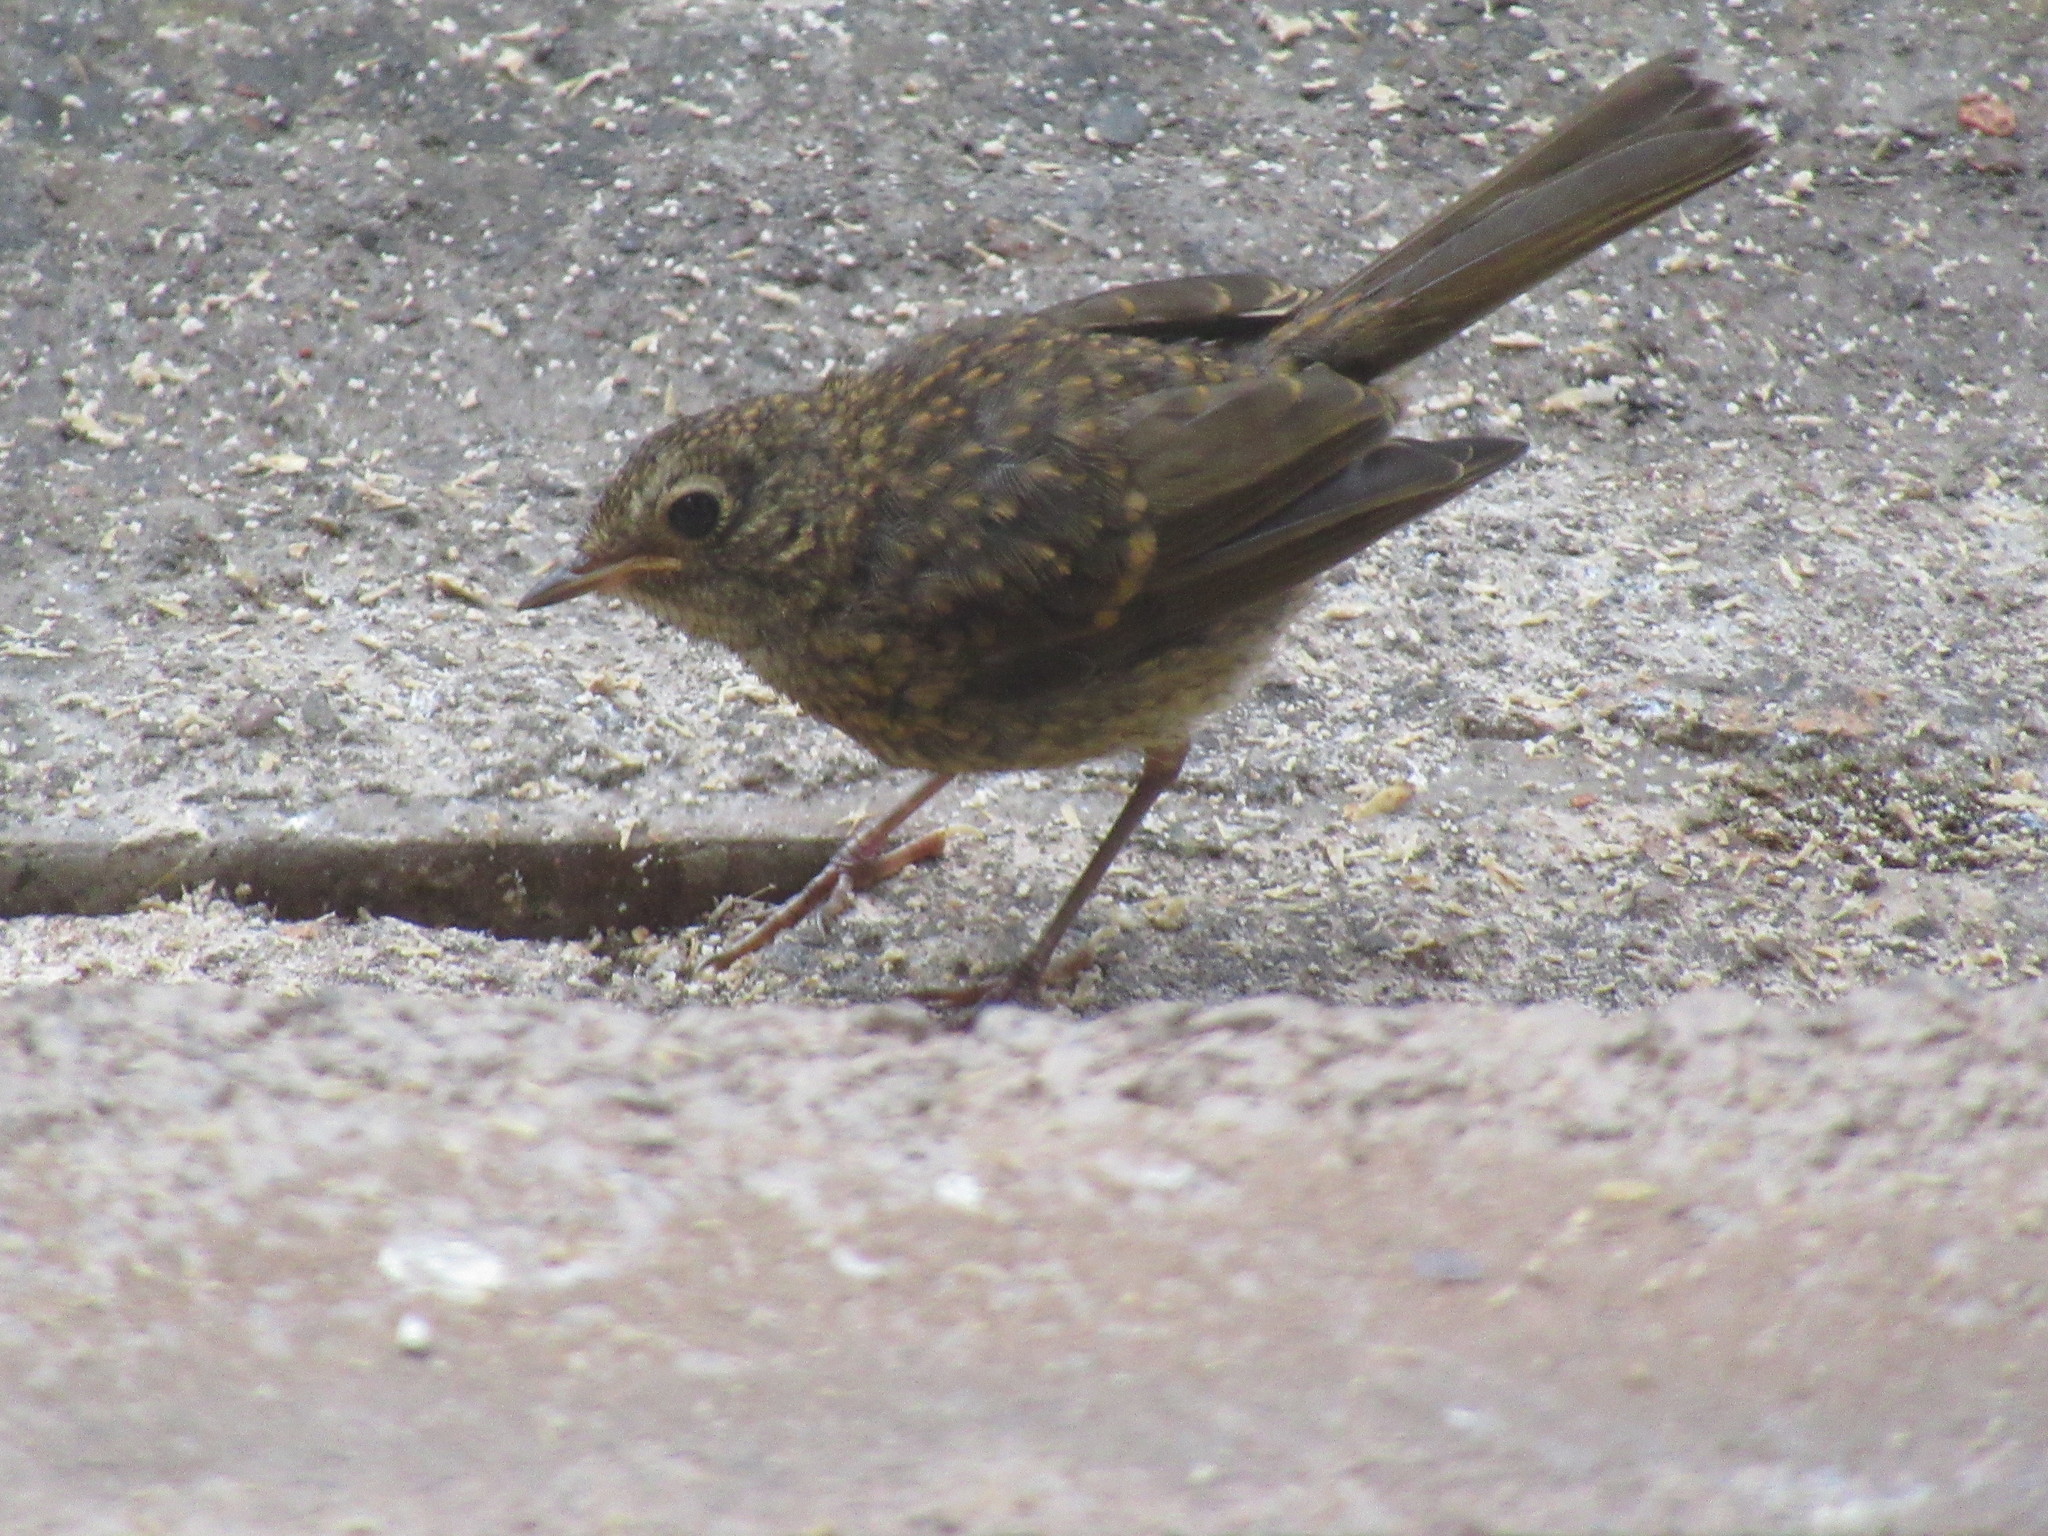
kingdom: Animalia
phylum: Chordata
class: Aves
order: Passeriformes
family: Muscicapidae
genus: Erithacus
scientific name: Erithacus rubecula
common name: European robin
